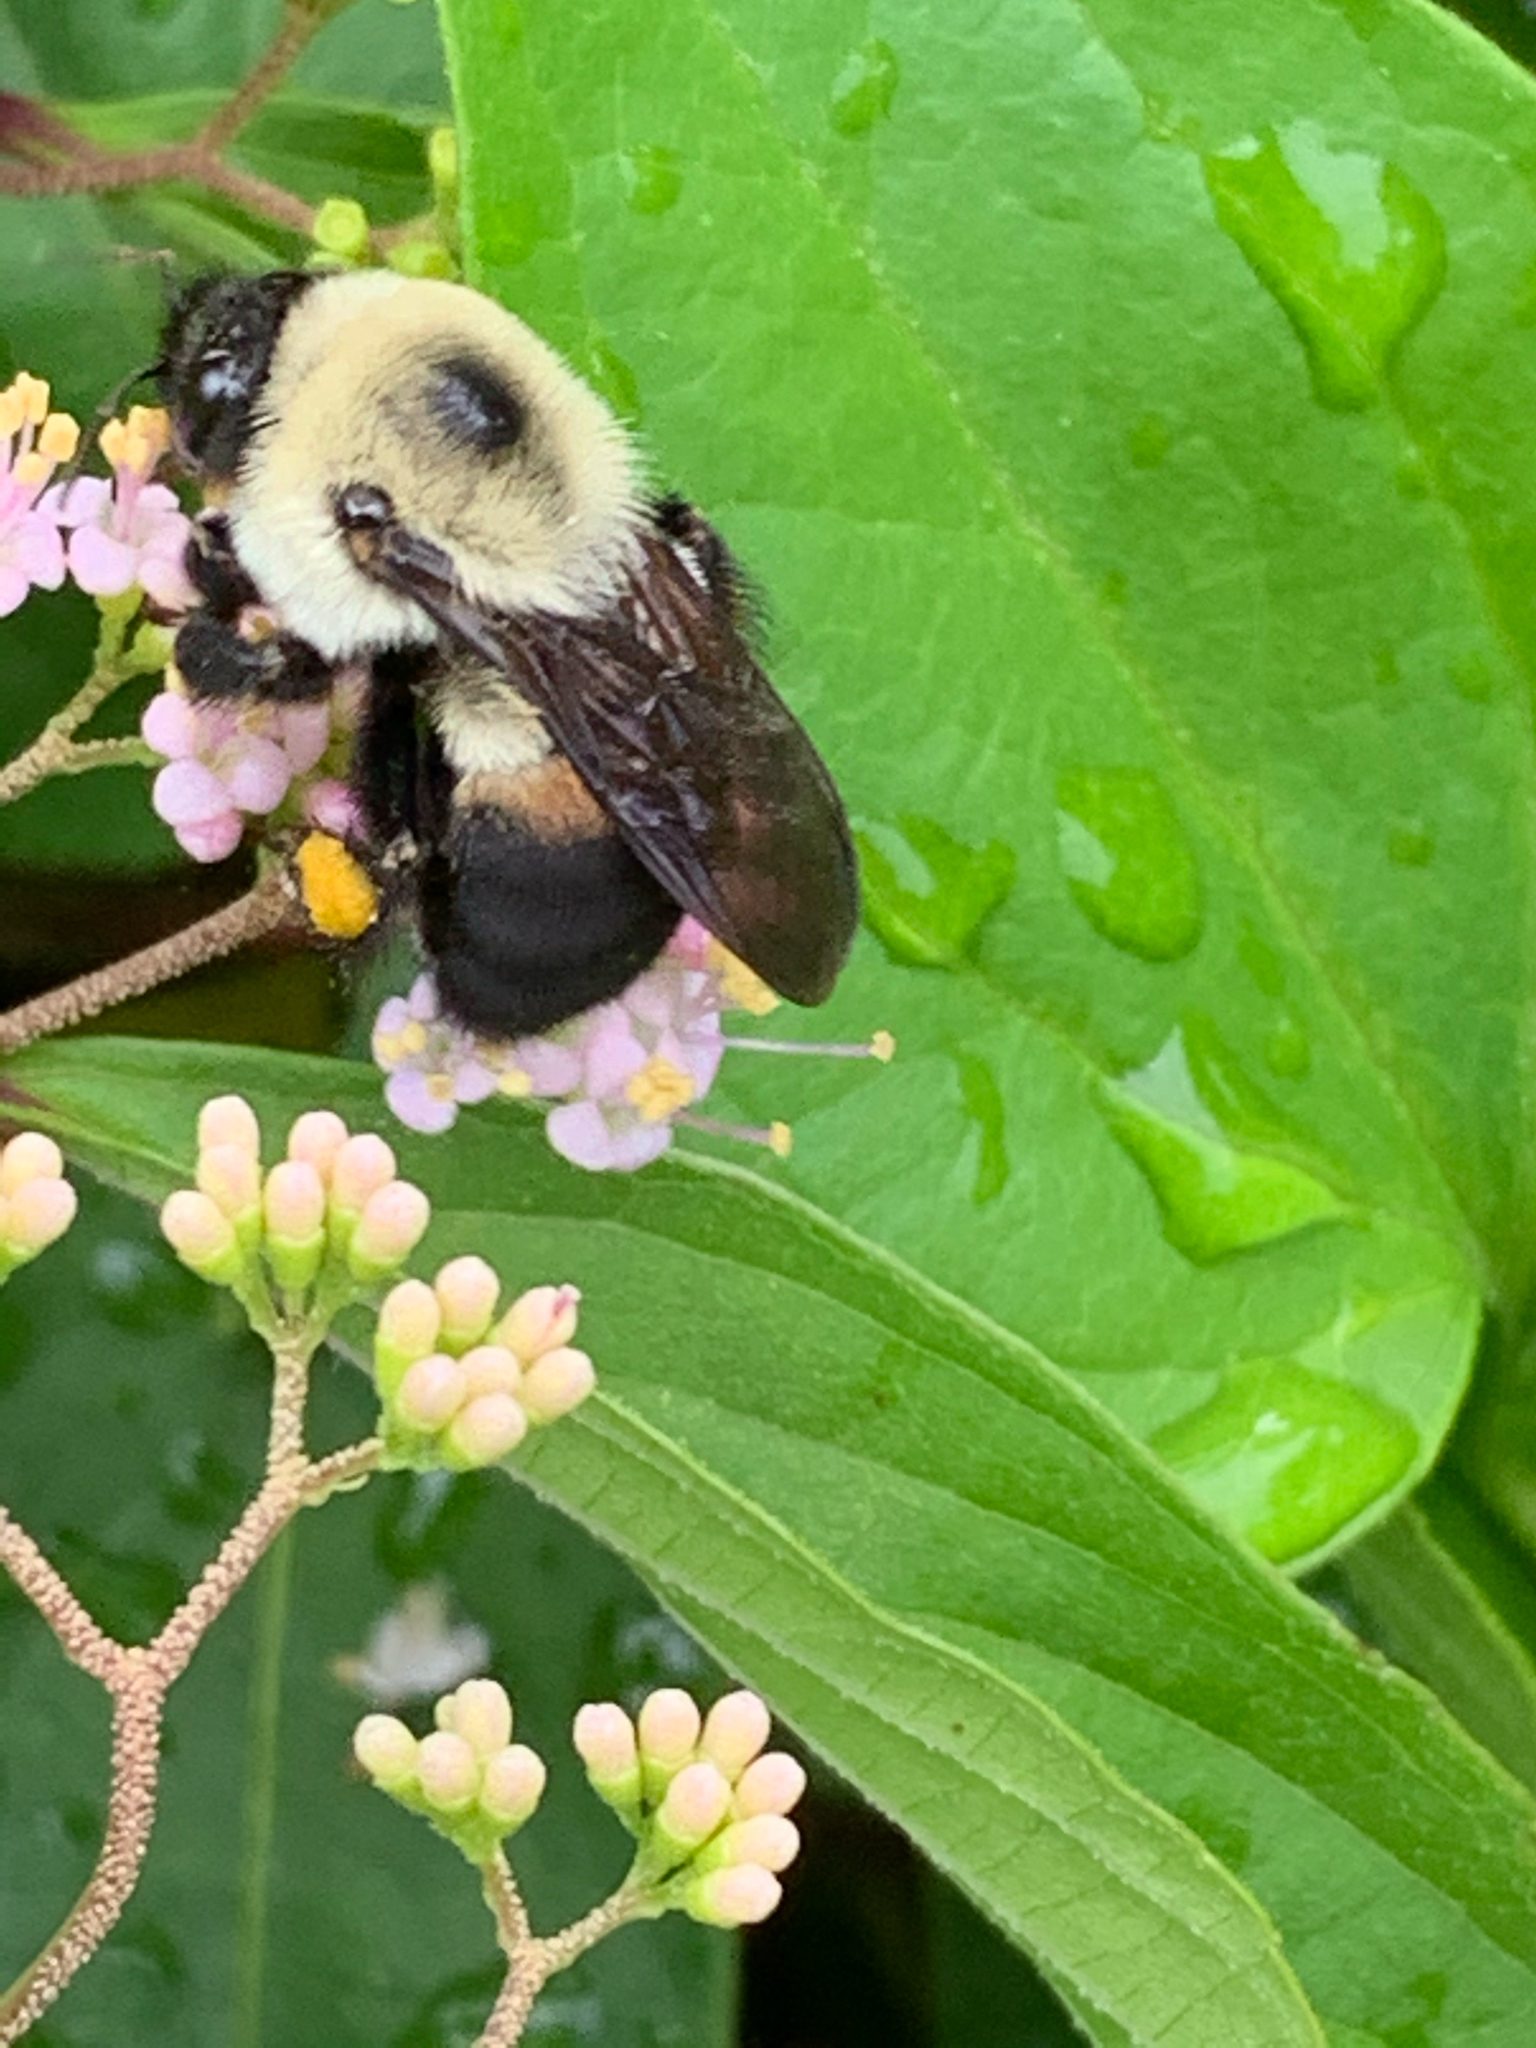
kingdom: Animalia
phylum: Arthropoda
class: Insecta
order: Hymenoptera
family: Apidae
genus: Bombus
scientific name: Bombus griseocollis
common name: Brown-belted bumble bee
